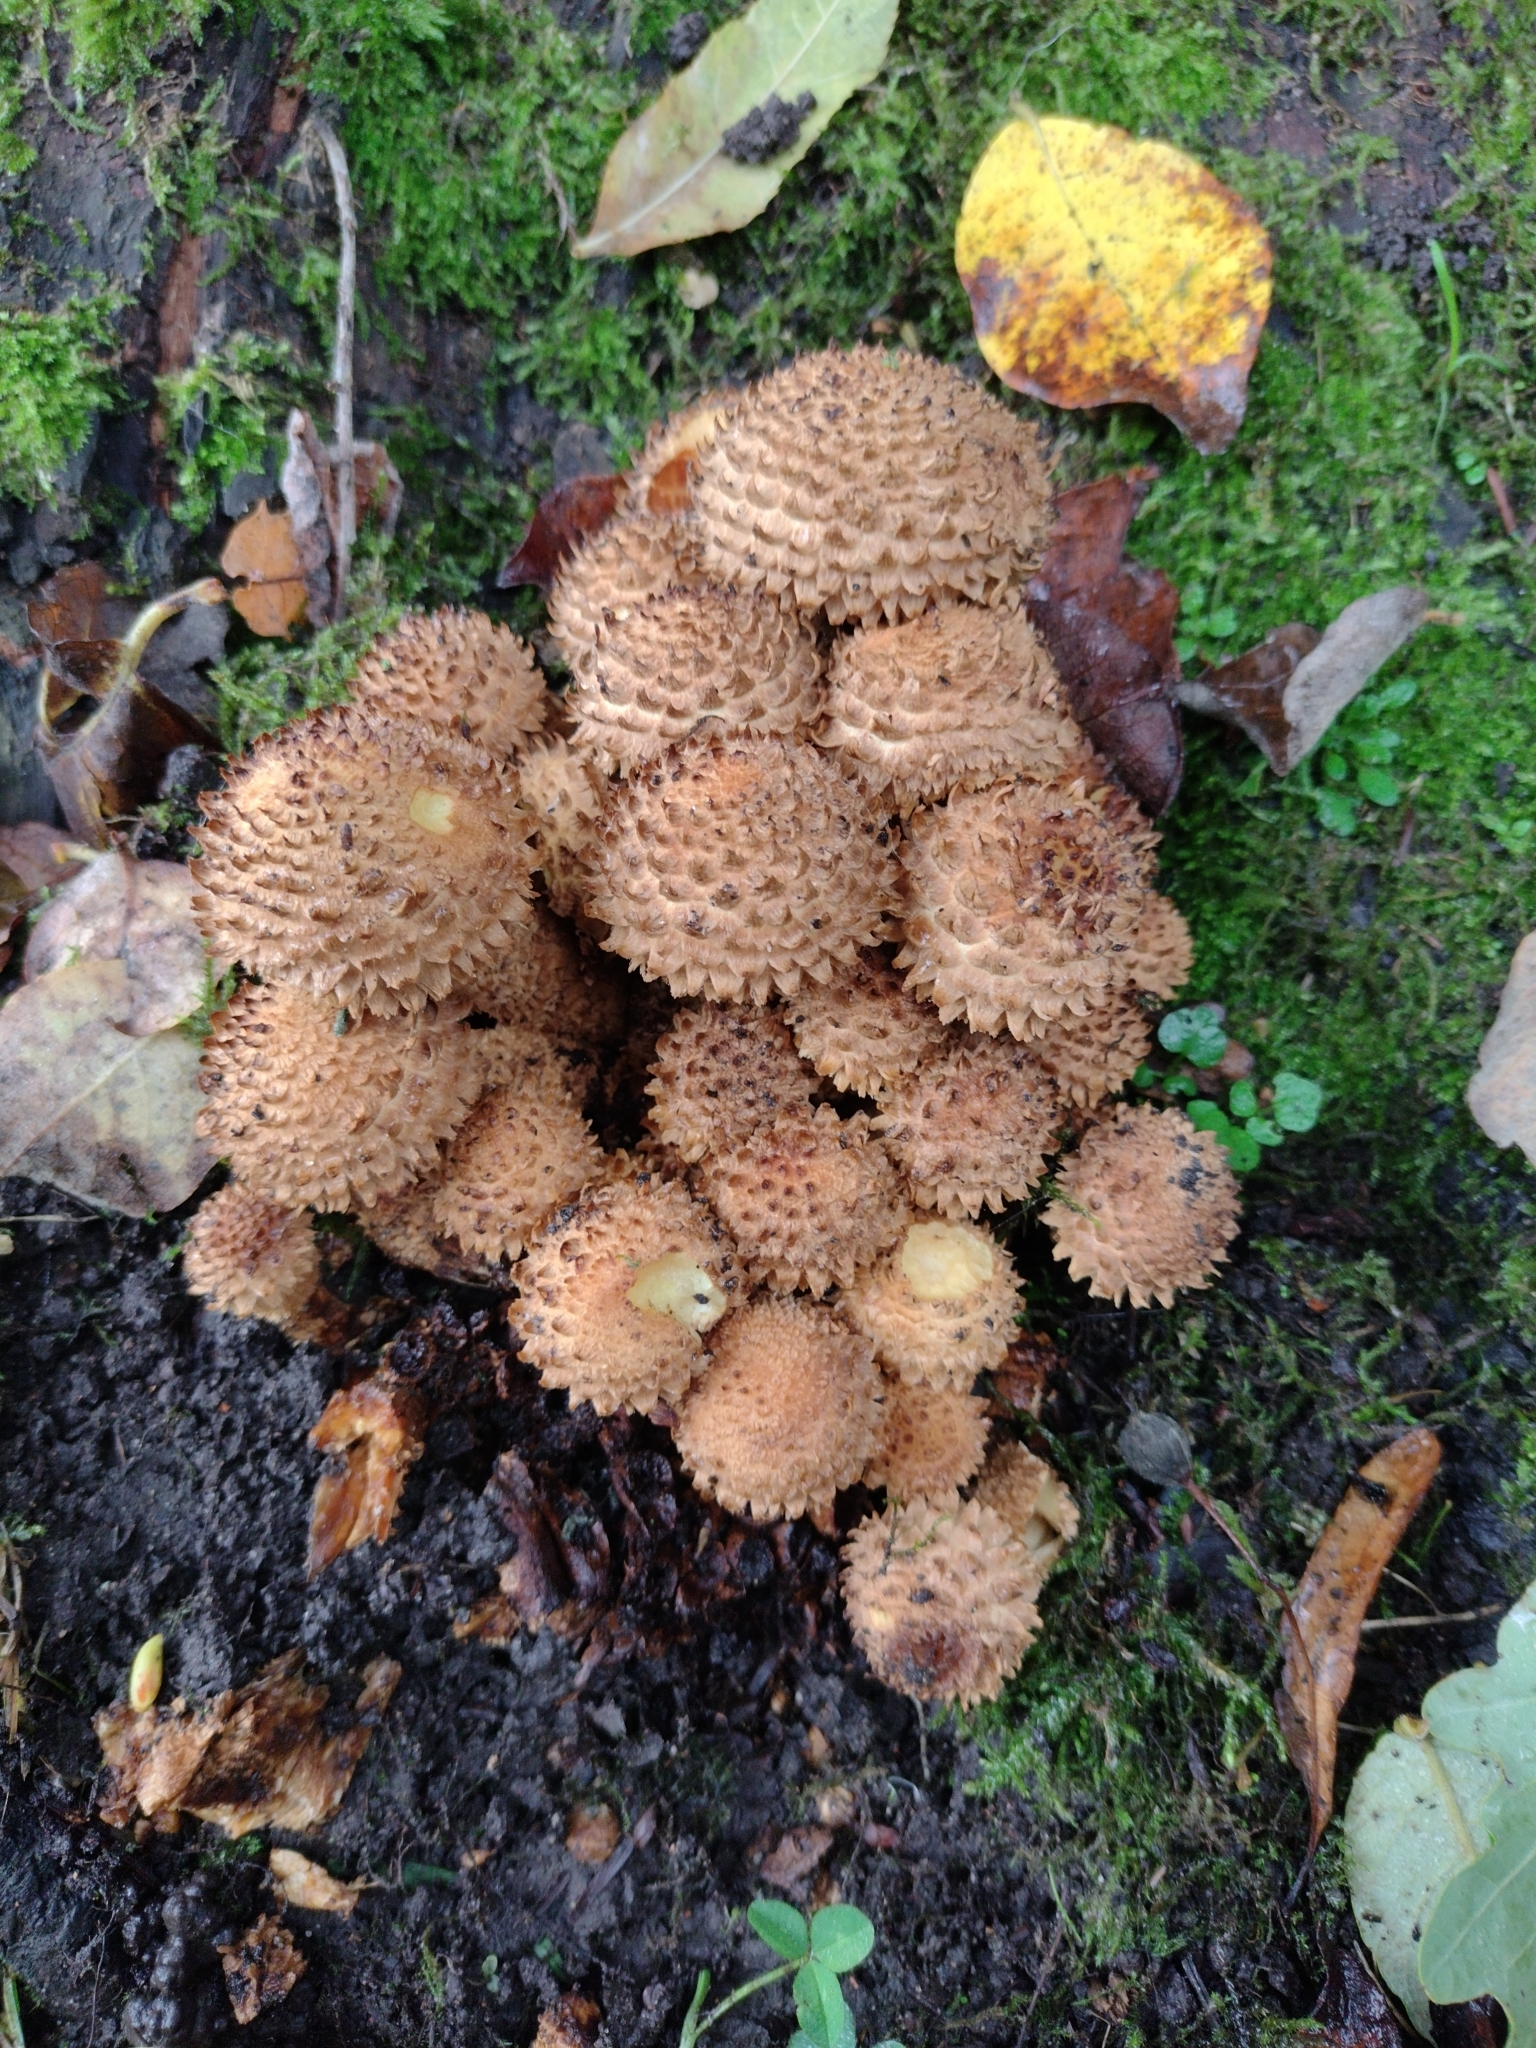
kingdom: Fungi
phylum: Basidiomycota
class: Agaricomycetes
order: Agaricales
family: Strophariaceae
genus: Pholiota
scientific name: Pholiota squarrosa
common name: Shaggy pholiota
